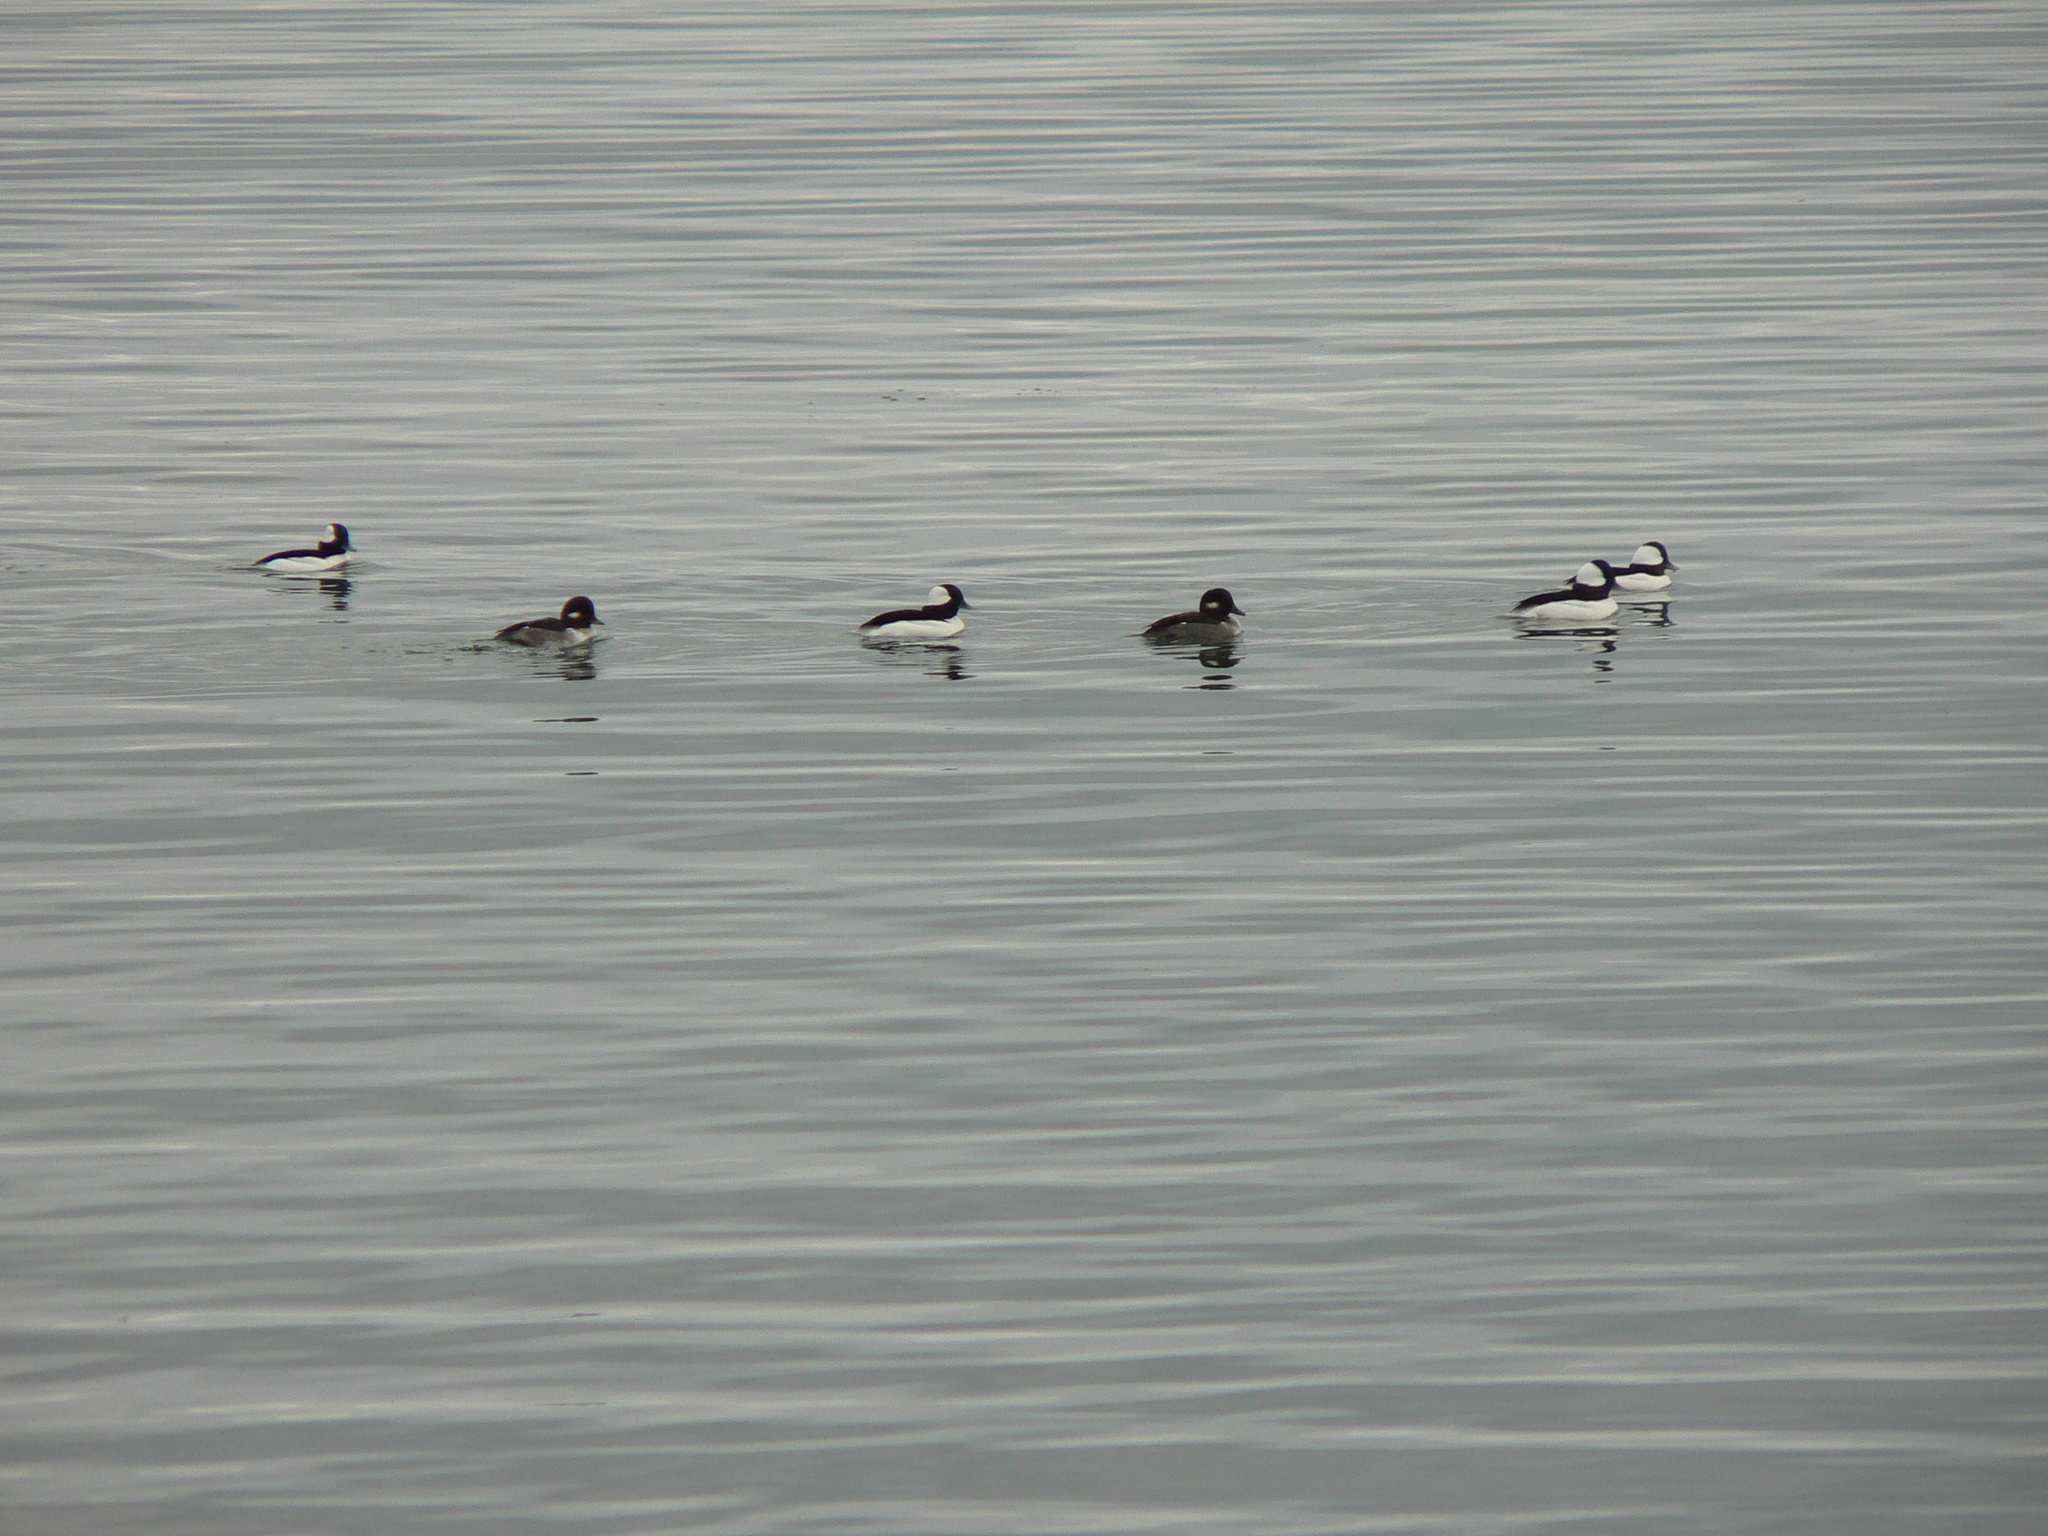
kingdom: Animalia
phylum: Chordata
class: Aves
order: Anseriformes
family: Anatidae
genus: Bucephala
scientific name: Bucephala albeola
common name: Bufflehead
